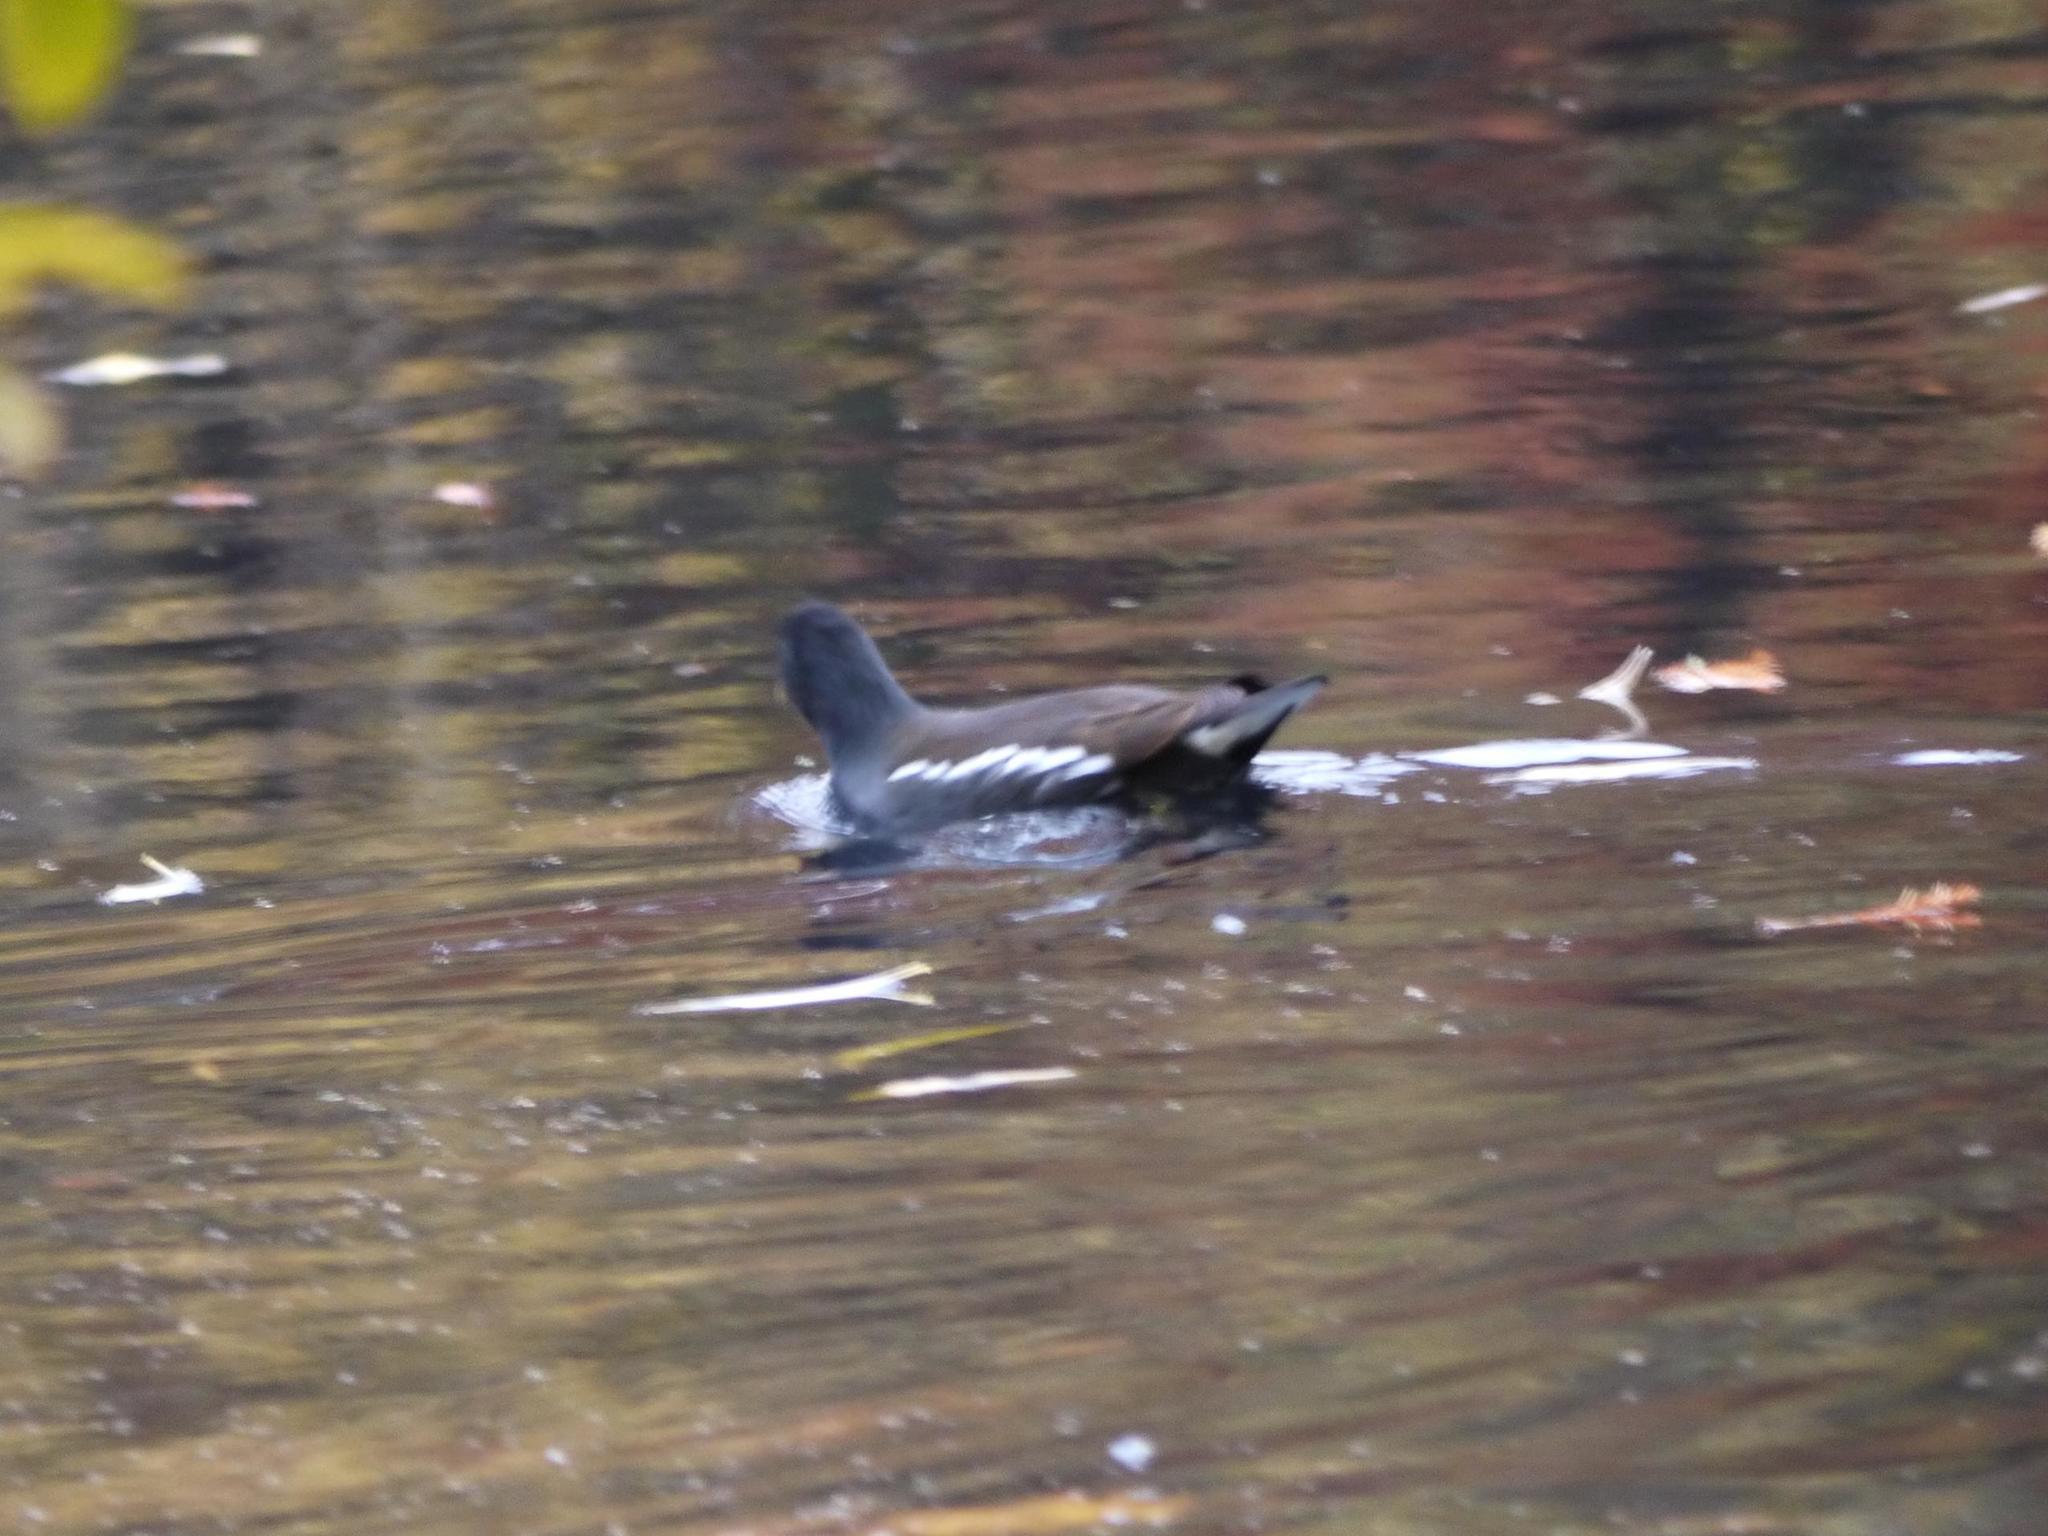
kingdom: Animalia
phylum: Chordata
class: Aves
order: Gruiformes
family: Rallidae
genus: Gallinula
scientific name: Gallinula chloropus
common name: Common moorhen
